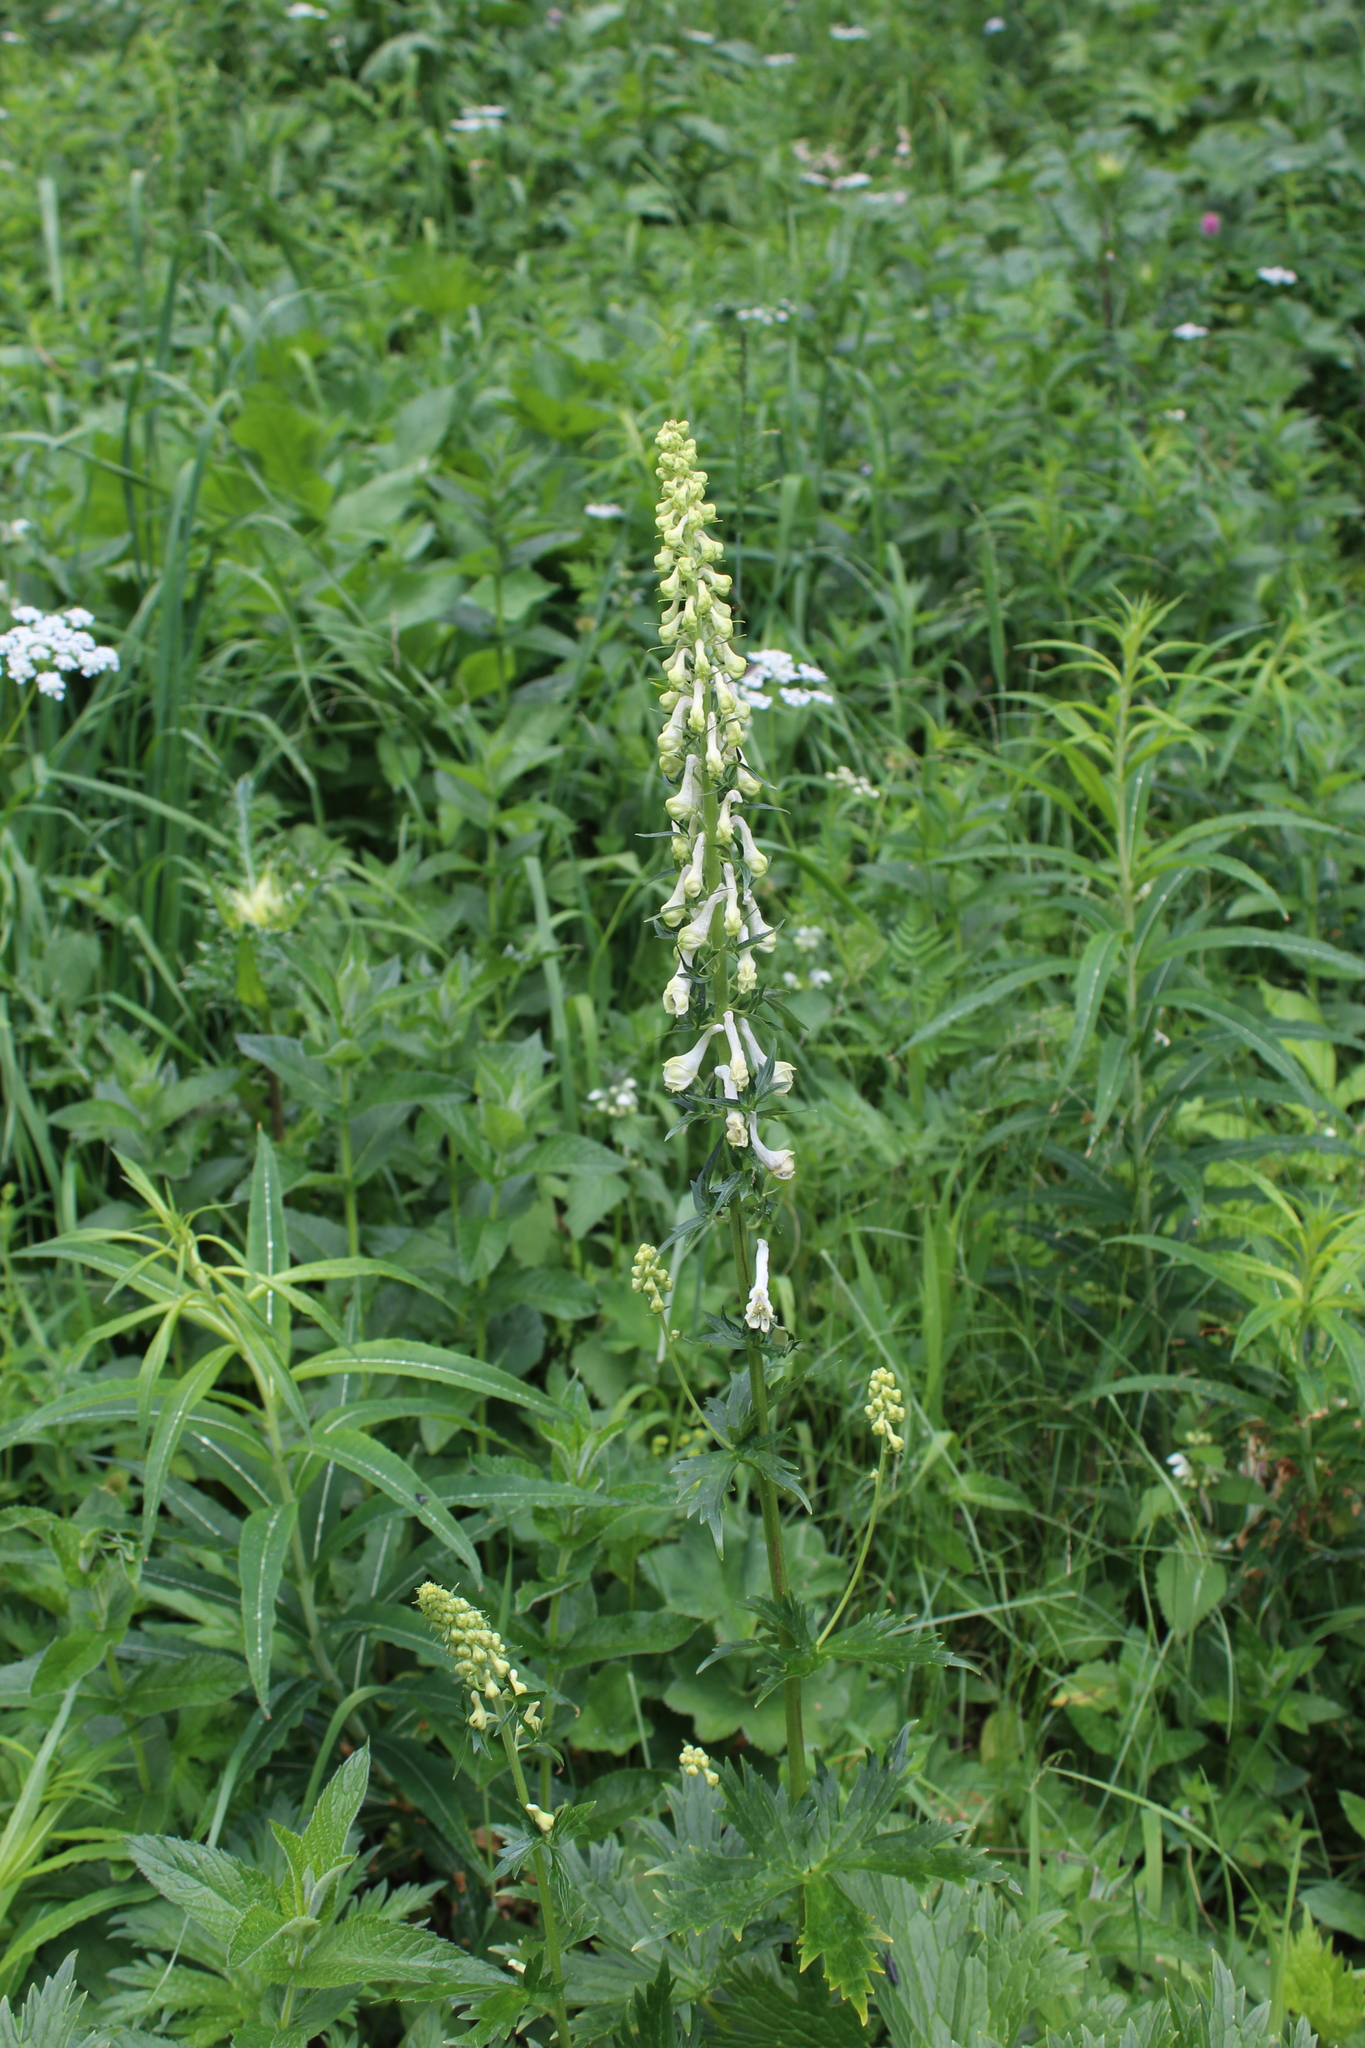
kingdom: Plantae
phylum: Tracheophyta
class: Magnoliopsida
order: Ranunculales
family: Ranunculaceae
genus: Aconitum
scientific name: Aconitum orientale
